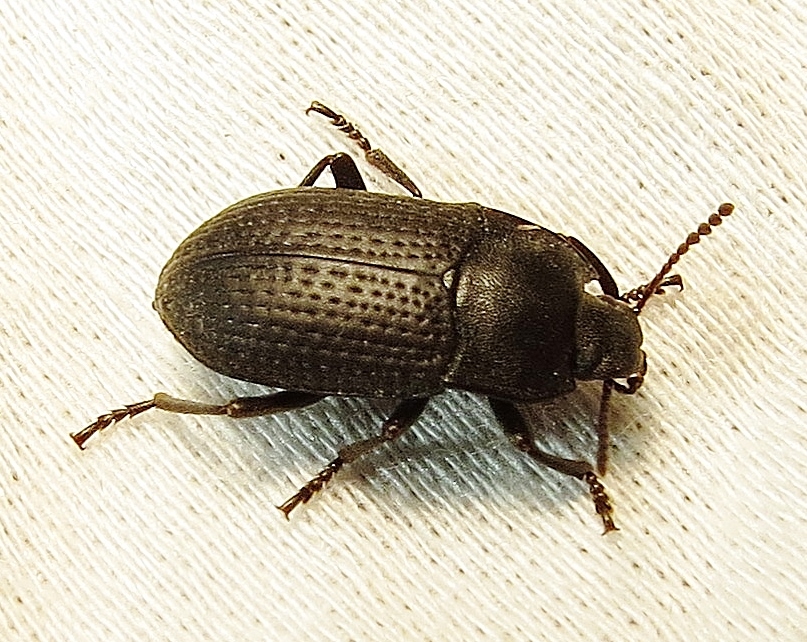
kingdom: Animalia
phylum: Arthropoda
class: Insecta
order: Coleoptera
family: Tenebrionidae
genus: Asiopus
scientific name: Asiopus
